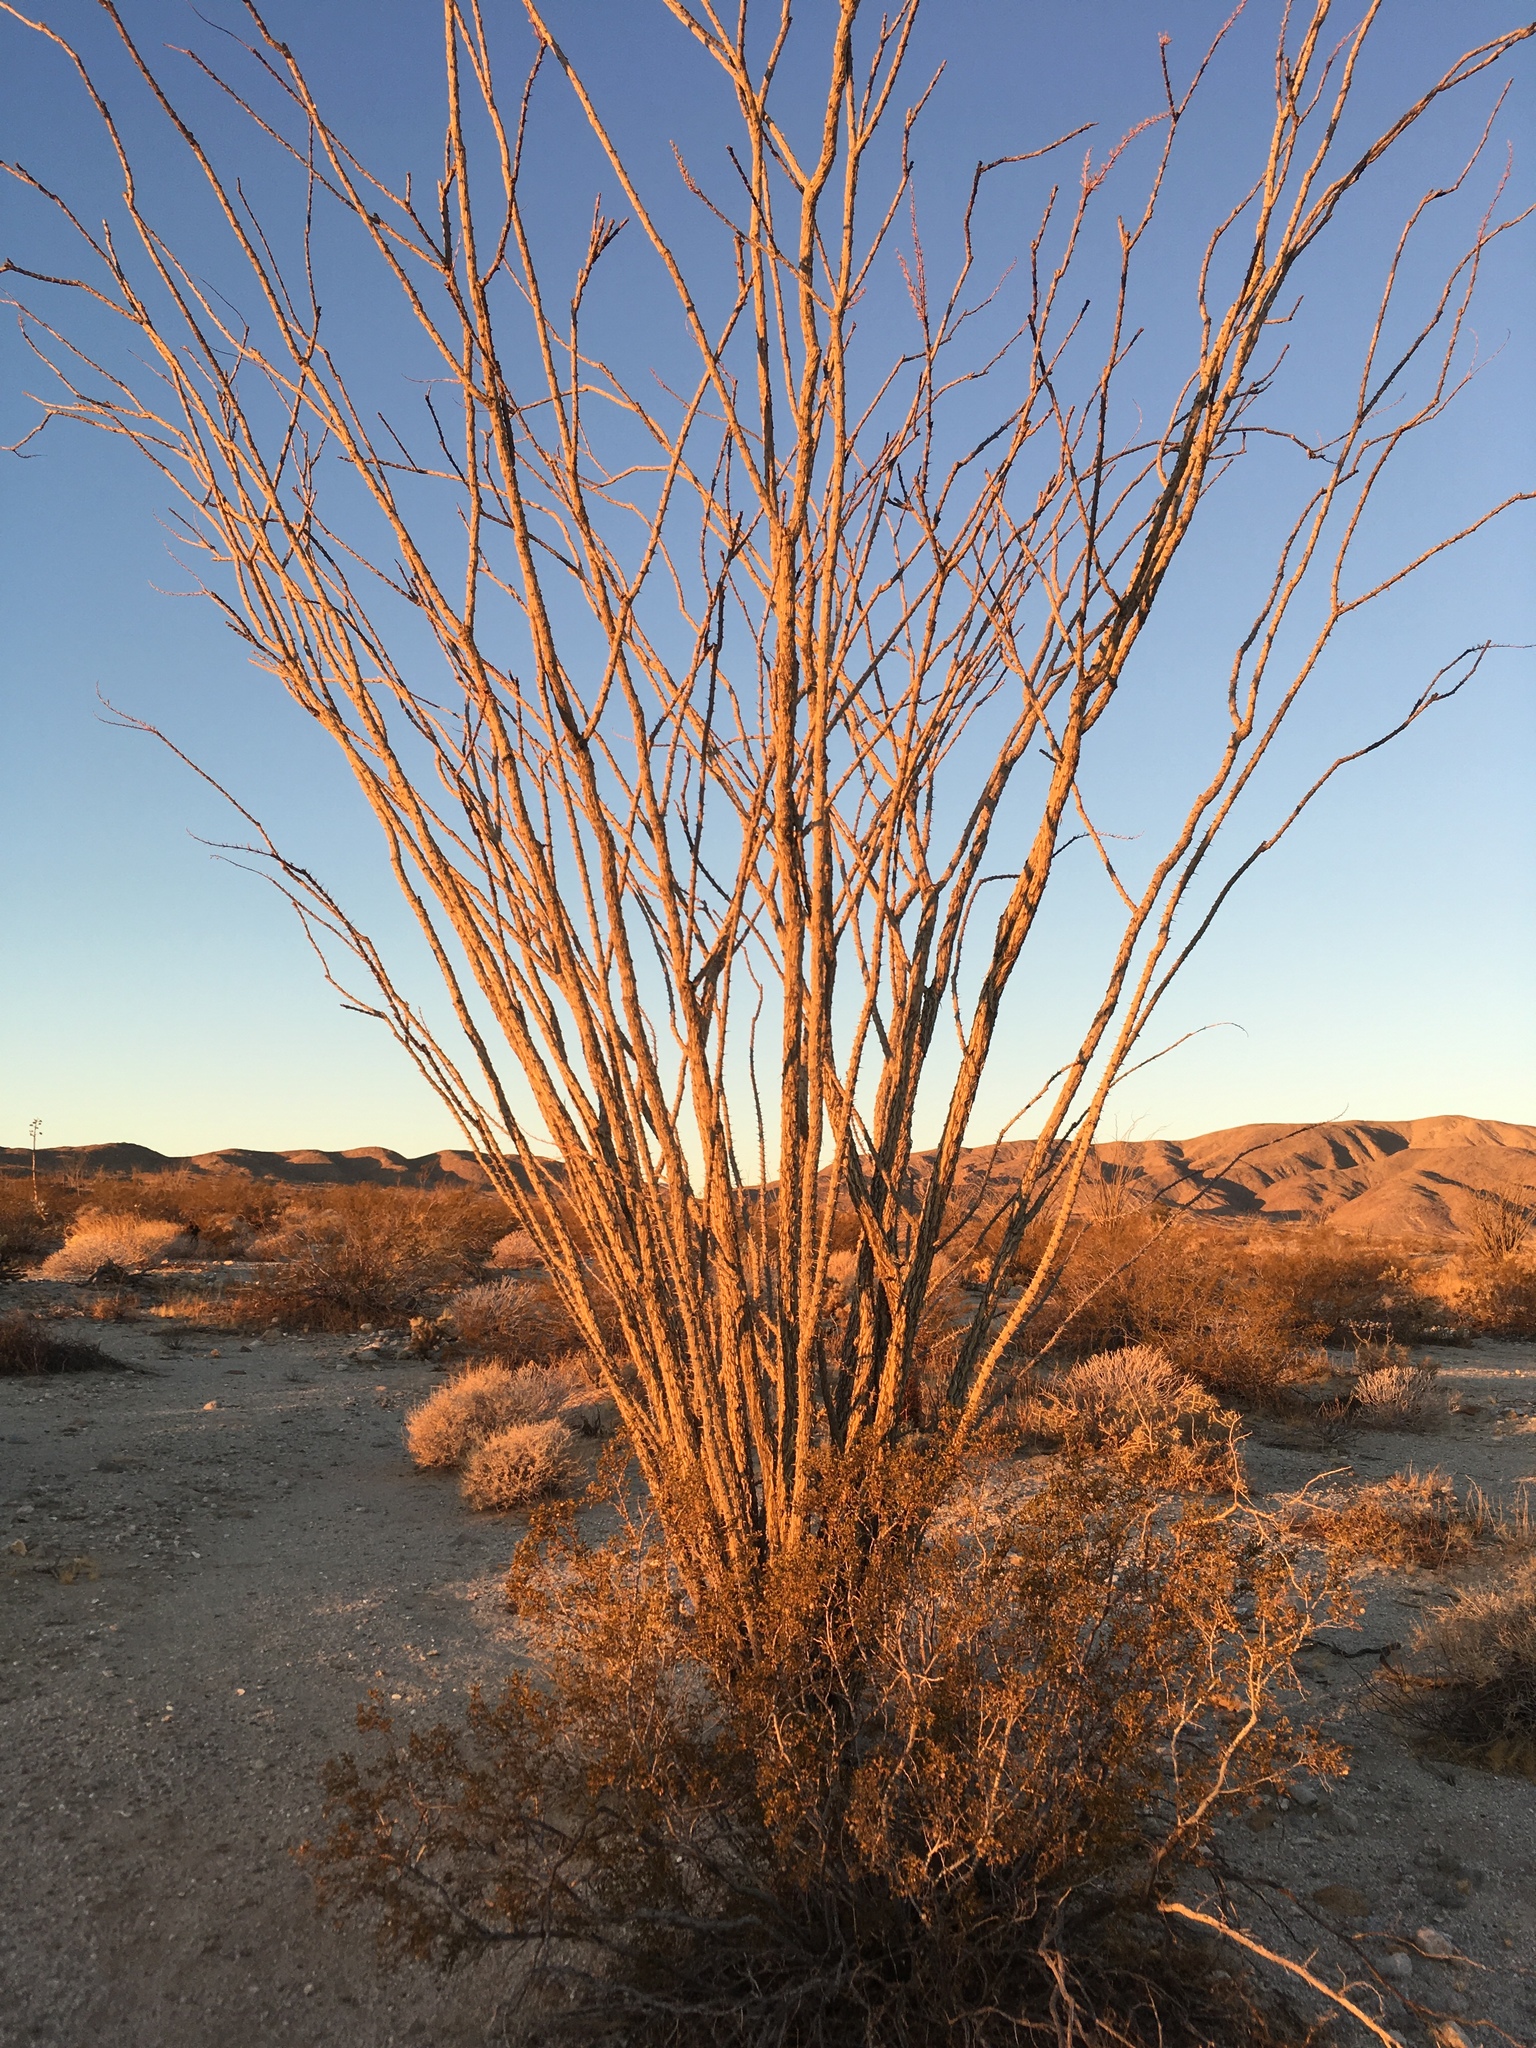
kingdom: Plantae
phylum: Tracheophyta
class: Magnoliopsida
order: Ericales
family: Fouquieriaceae
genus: Fouquieria
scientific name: Fouquieria splendens
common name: Vine-cactus
